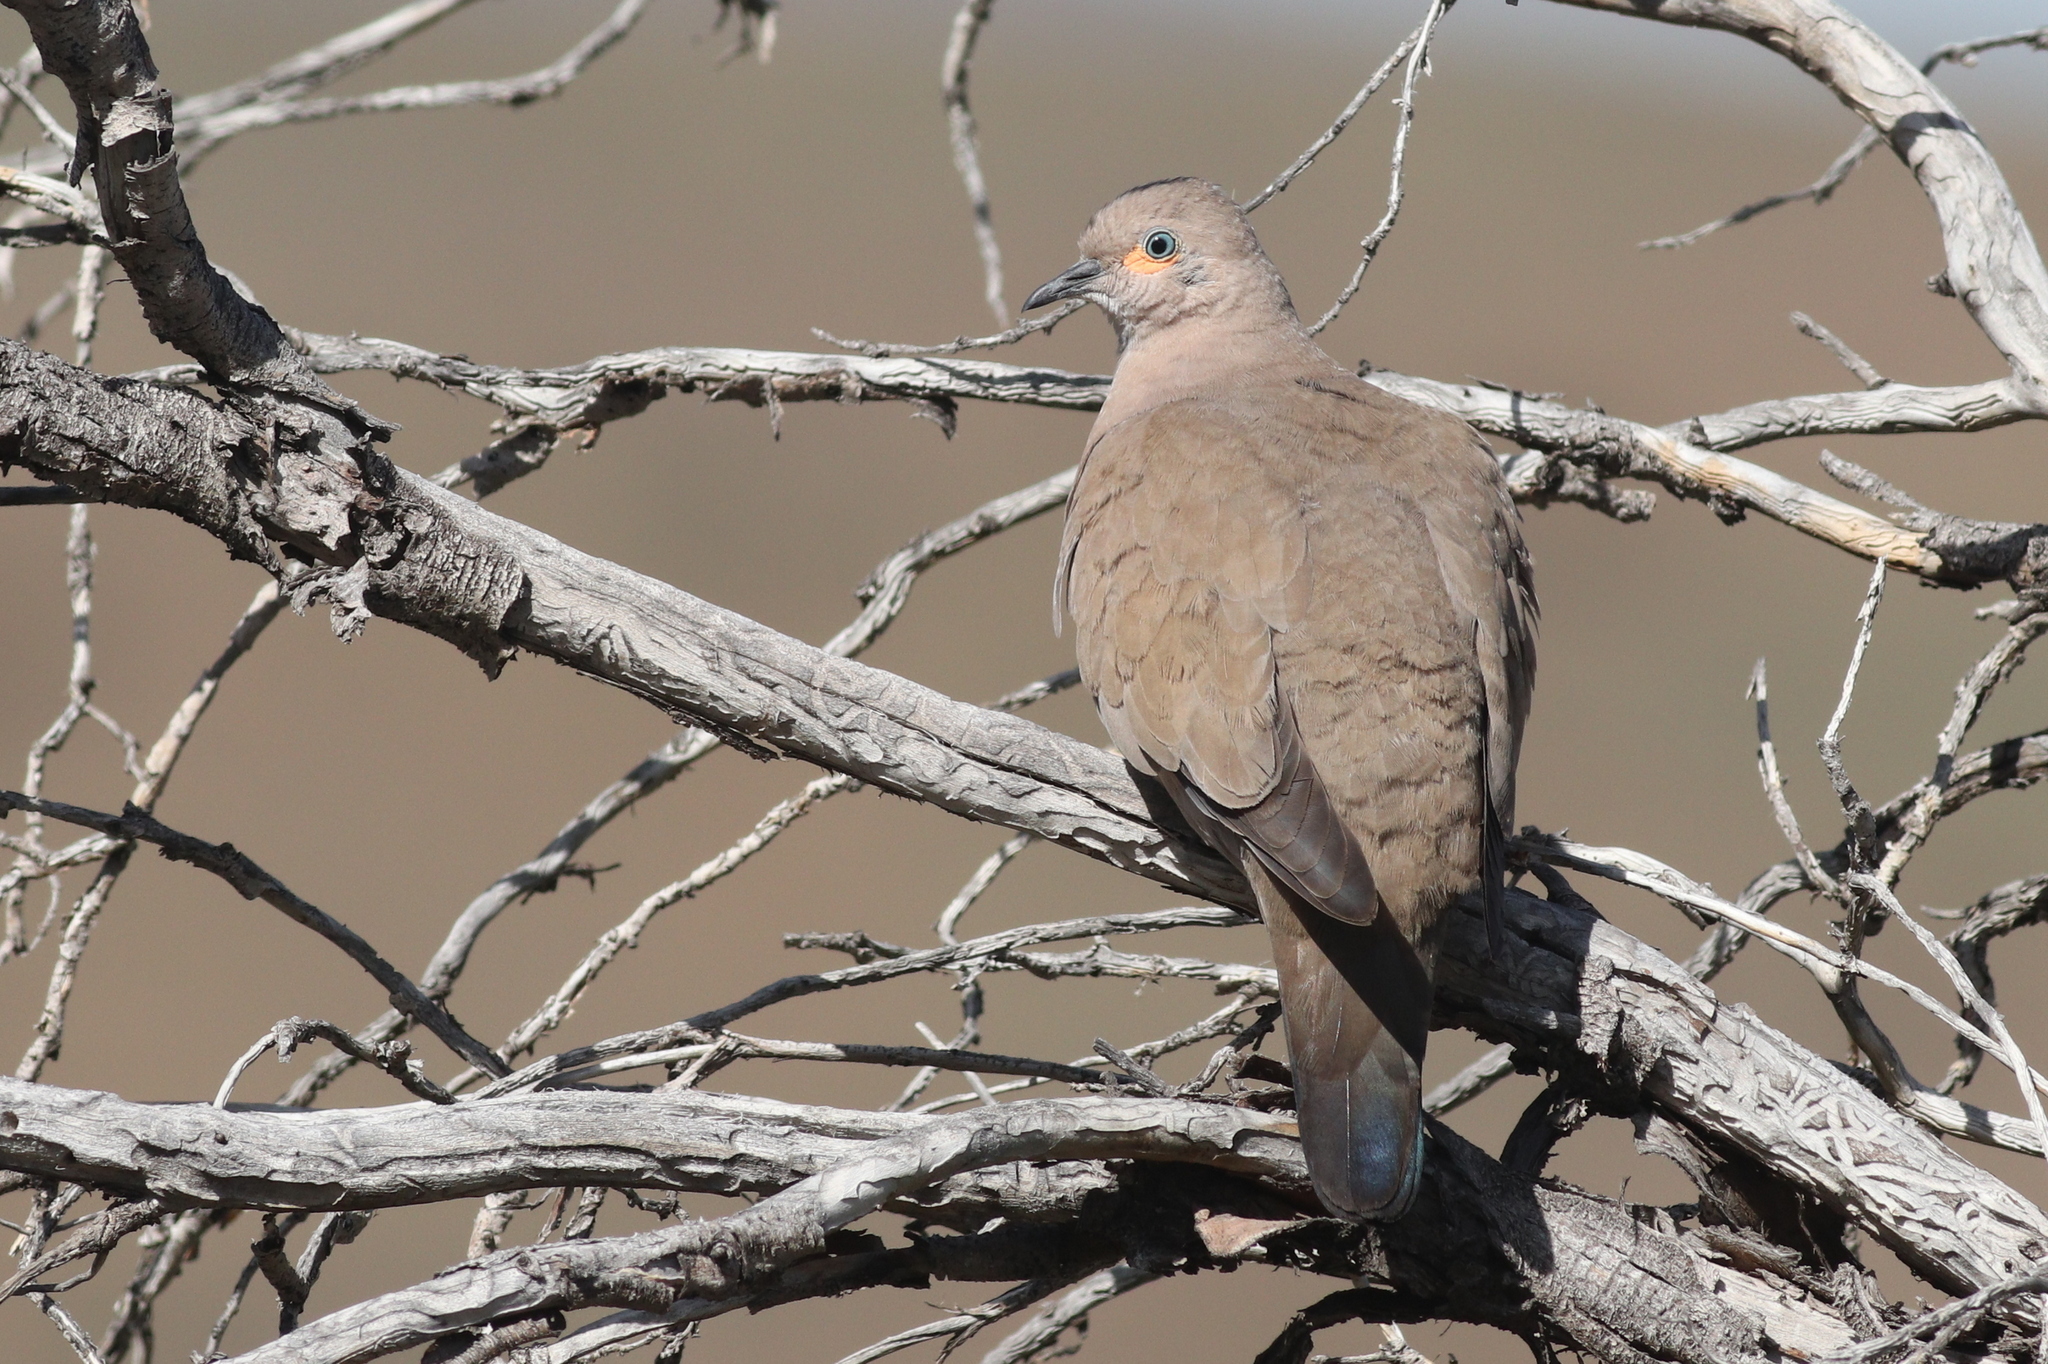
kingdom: Animalia
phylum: Chordata
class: Aves
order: Columbiformes
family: Columbidae
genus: Metriopelia
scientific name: Metriopelia melanoptera
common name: Black-winged ground dove
